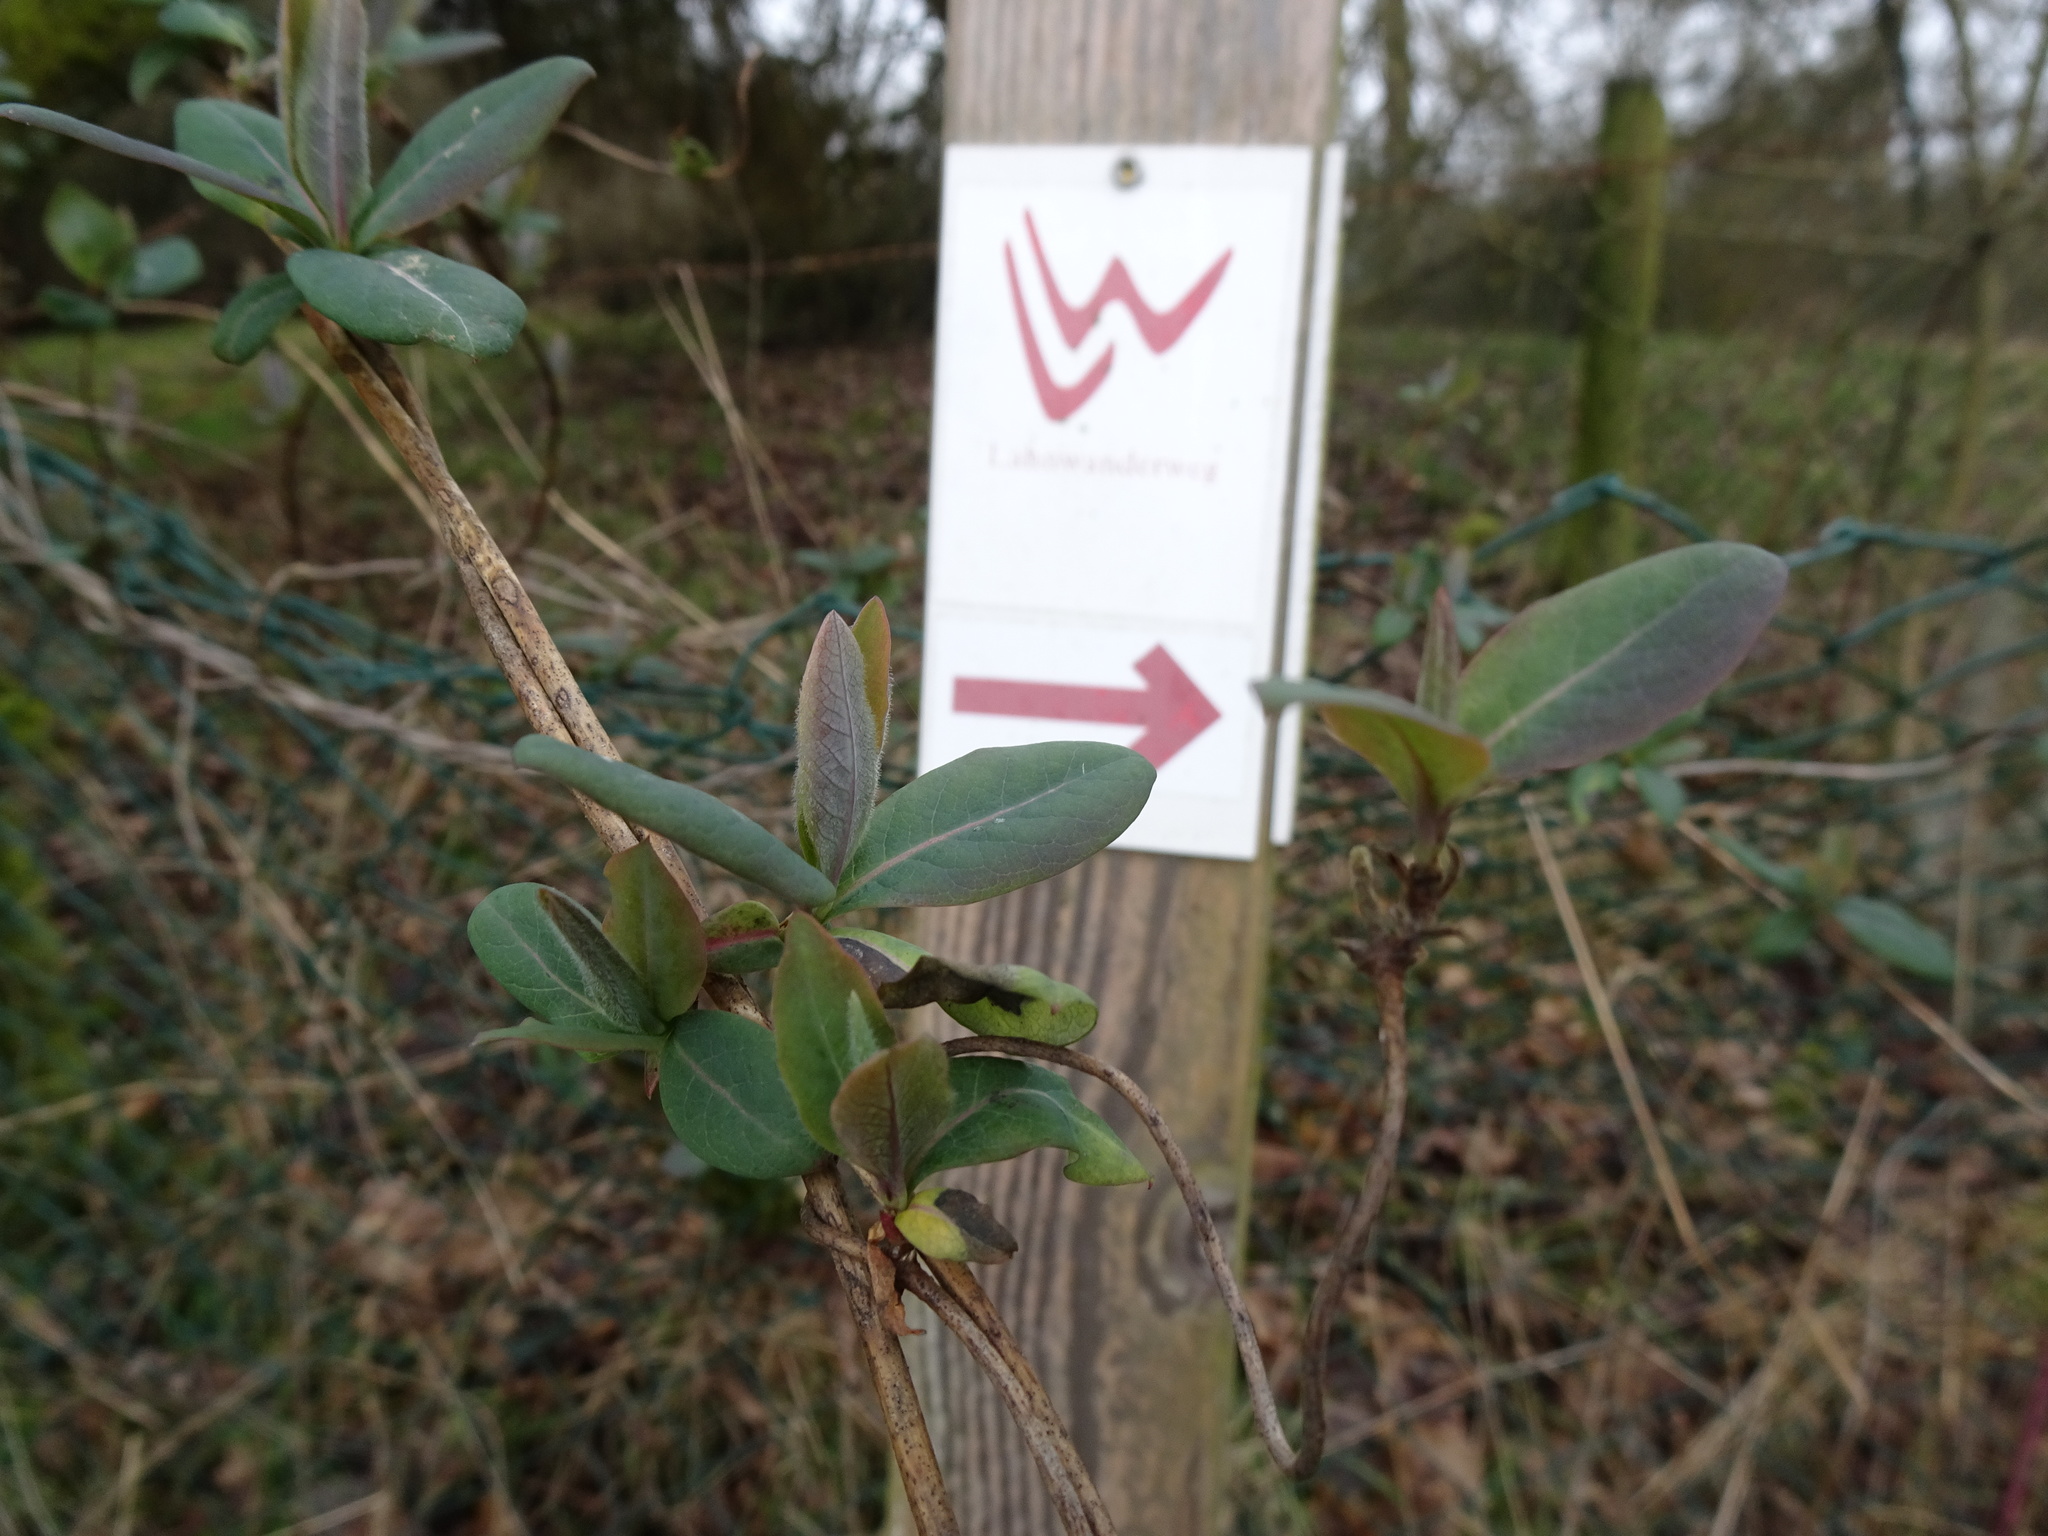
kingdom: Plantae
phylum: Tracheophyta
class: Magnoliopsida
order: Dipsacales
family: Caprifoliaceae
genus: Lonicera
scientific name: Lonicera periclymenum
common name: European honeysuckle
